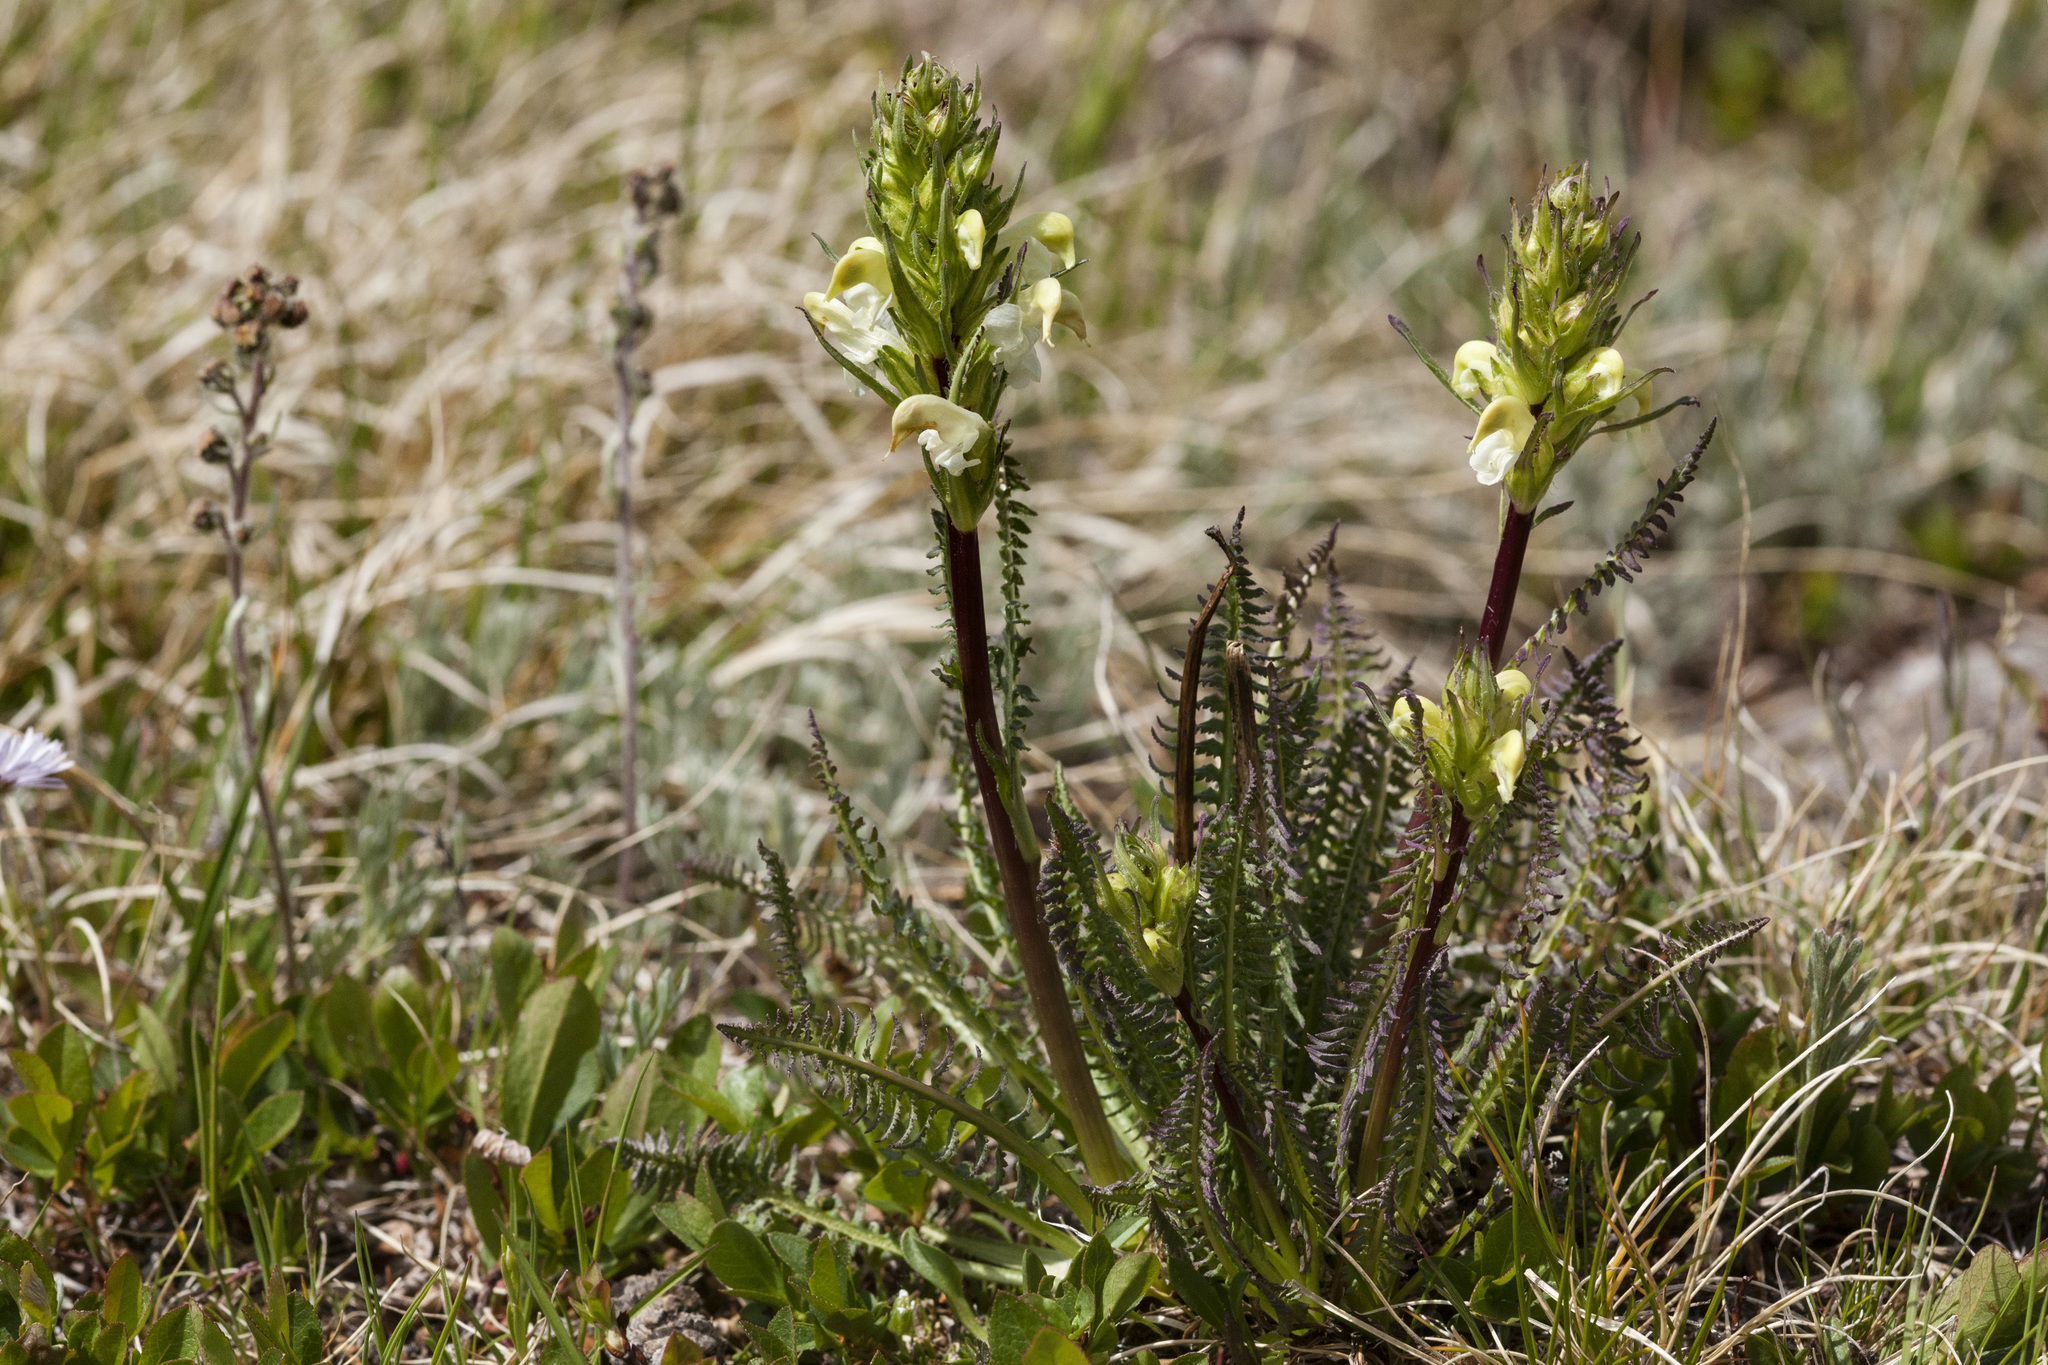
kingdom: Plantae
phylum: Tracheophyta
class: Magnoliopsida
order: Lamiales
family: Orobanchaceae
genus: Pedicularis
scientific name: Pedicularis parryi
